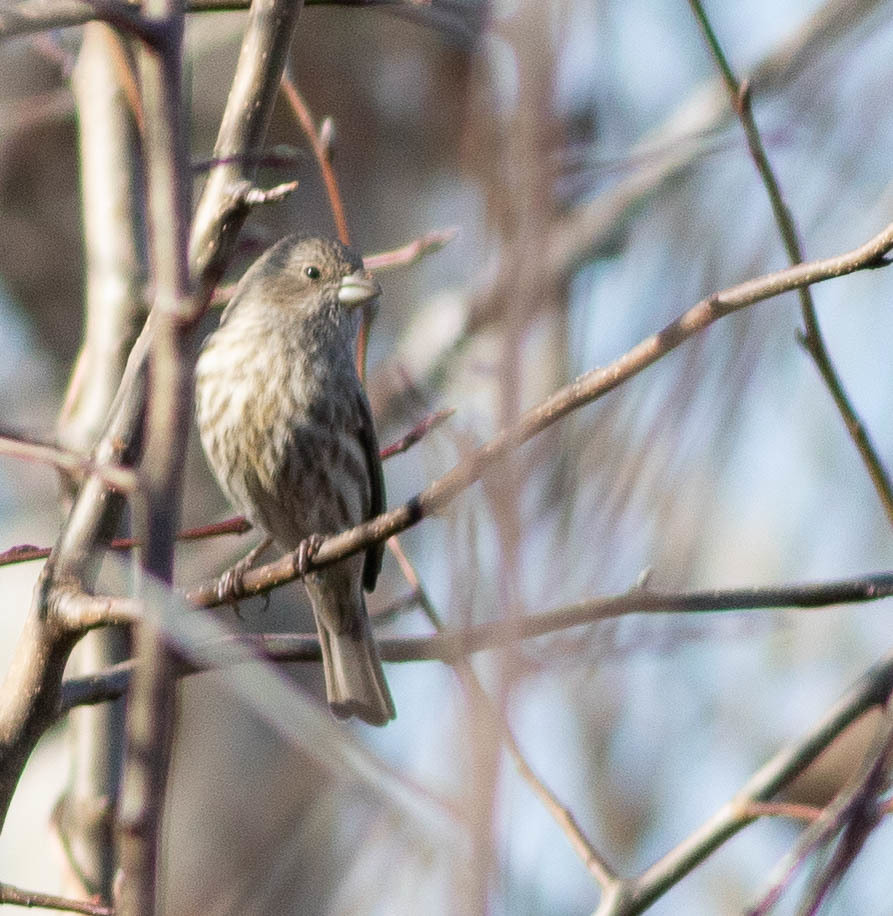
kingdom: Animalia
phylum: Chordata
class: Aves
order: Passeriformes
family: Fringillidae
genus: Haemorhous
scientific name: Haemorhous mexicanus
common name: House finch
